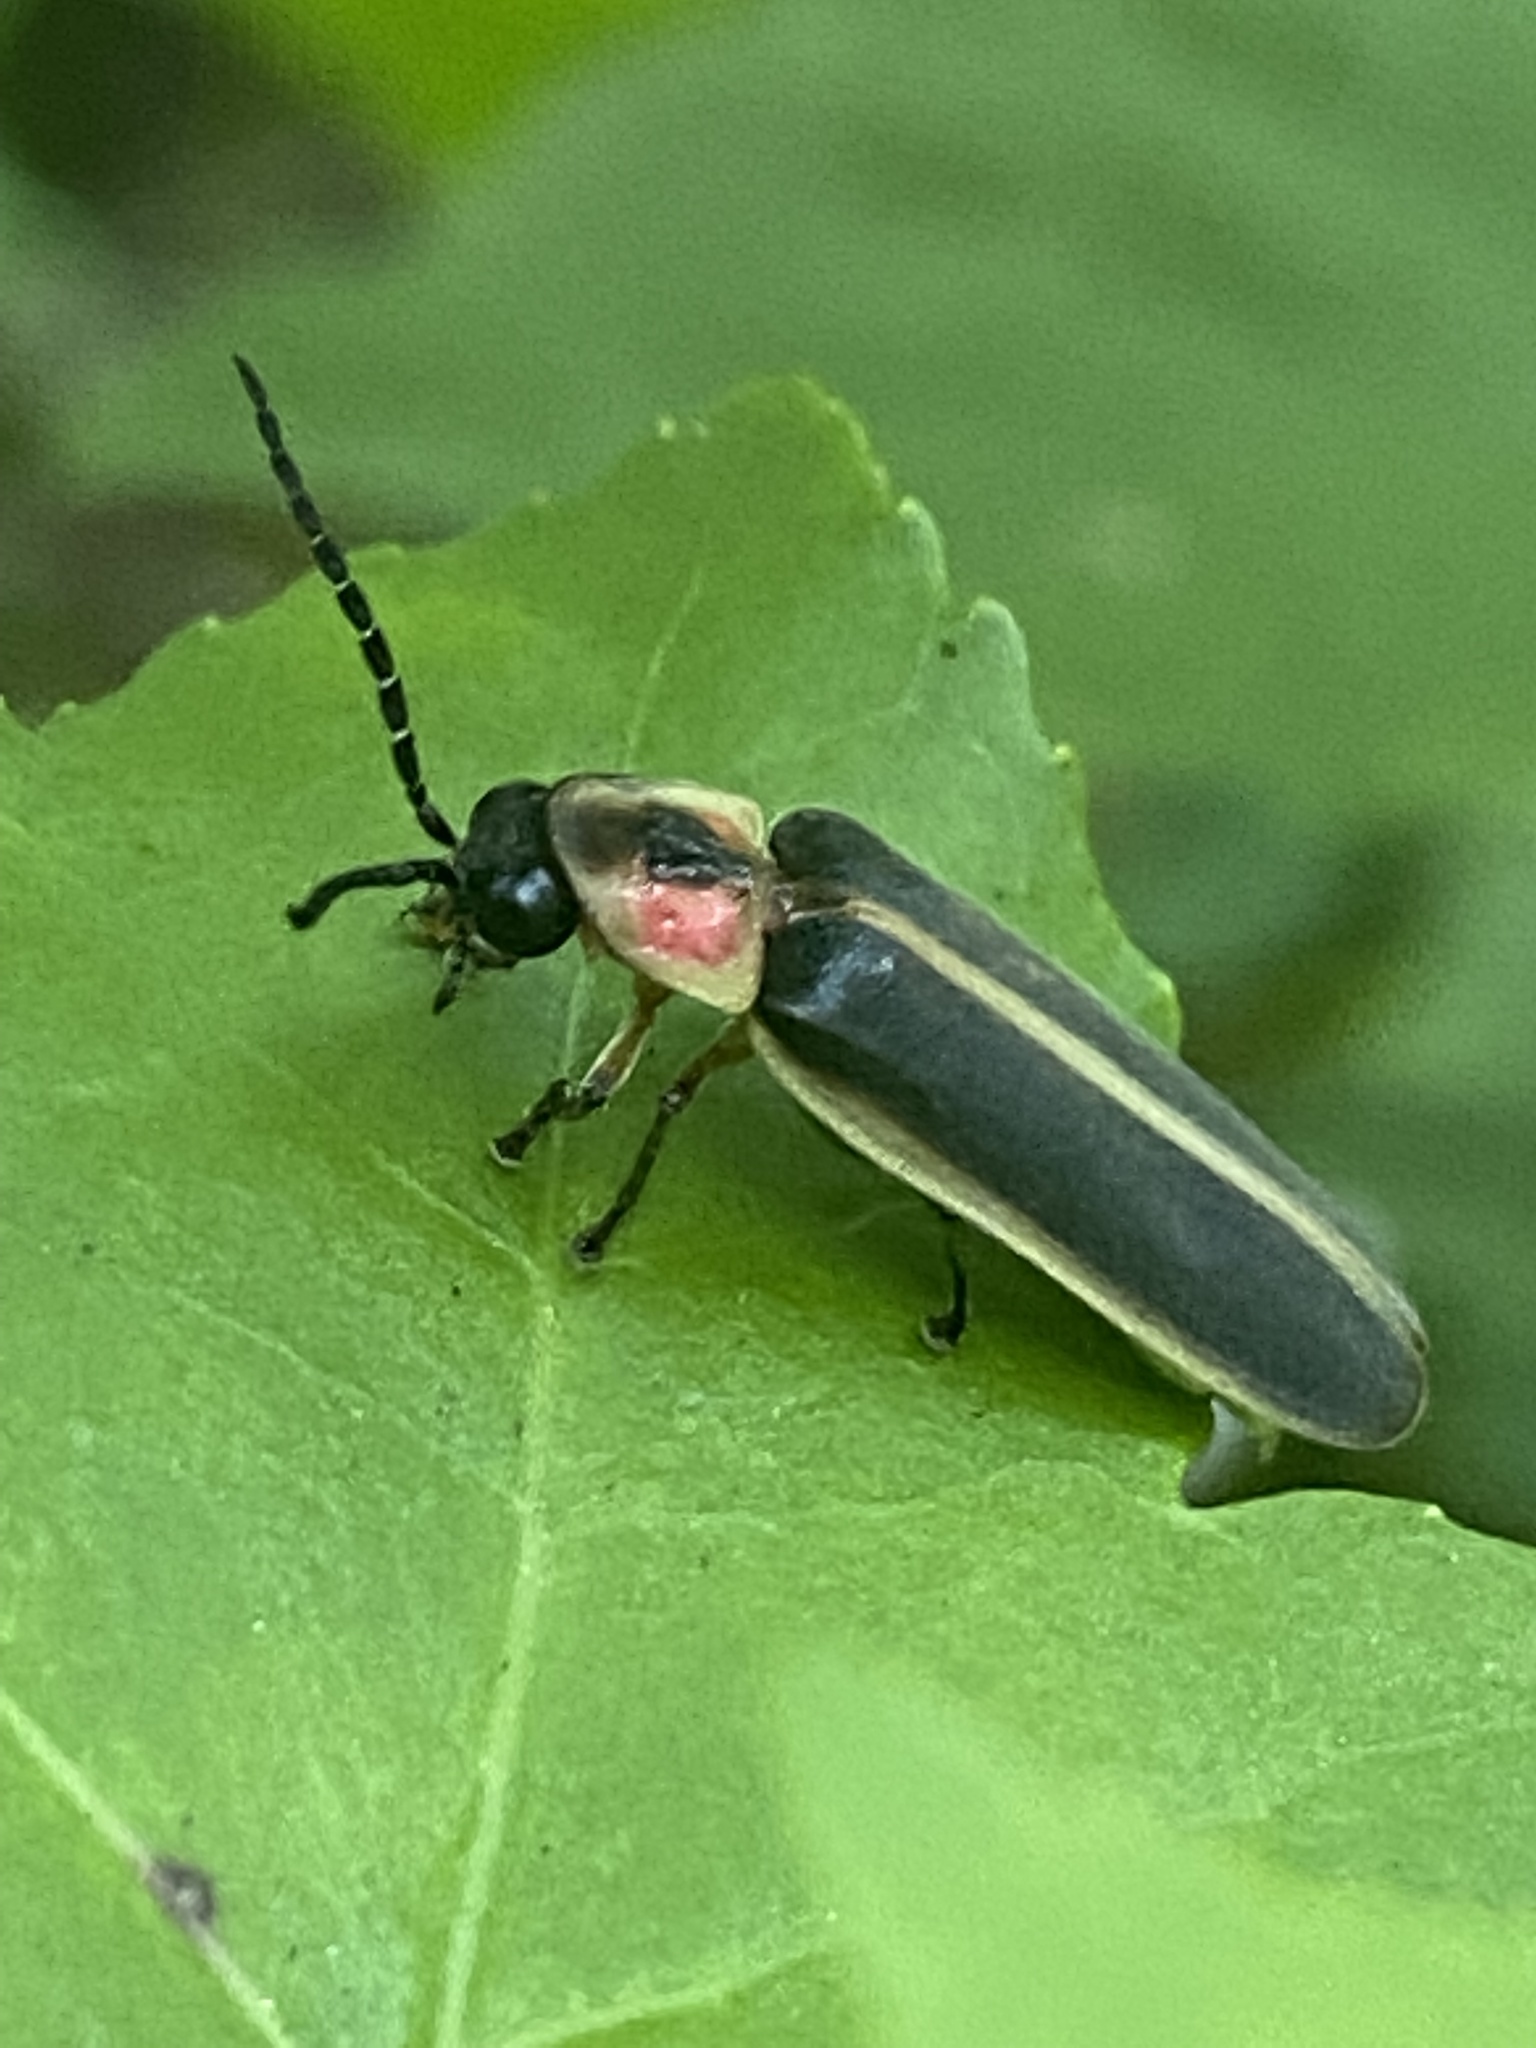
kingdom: Animalia
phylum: Arthropoda
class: Insecta
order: Coleoptera
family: Lampyridae
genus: Photinus
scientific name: Photinus pyralis
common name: Big dipper firefly
